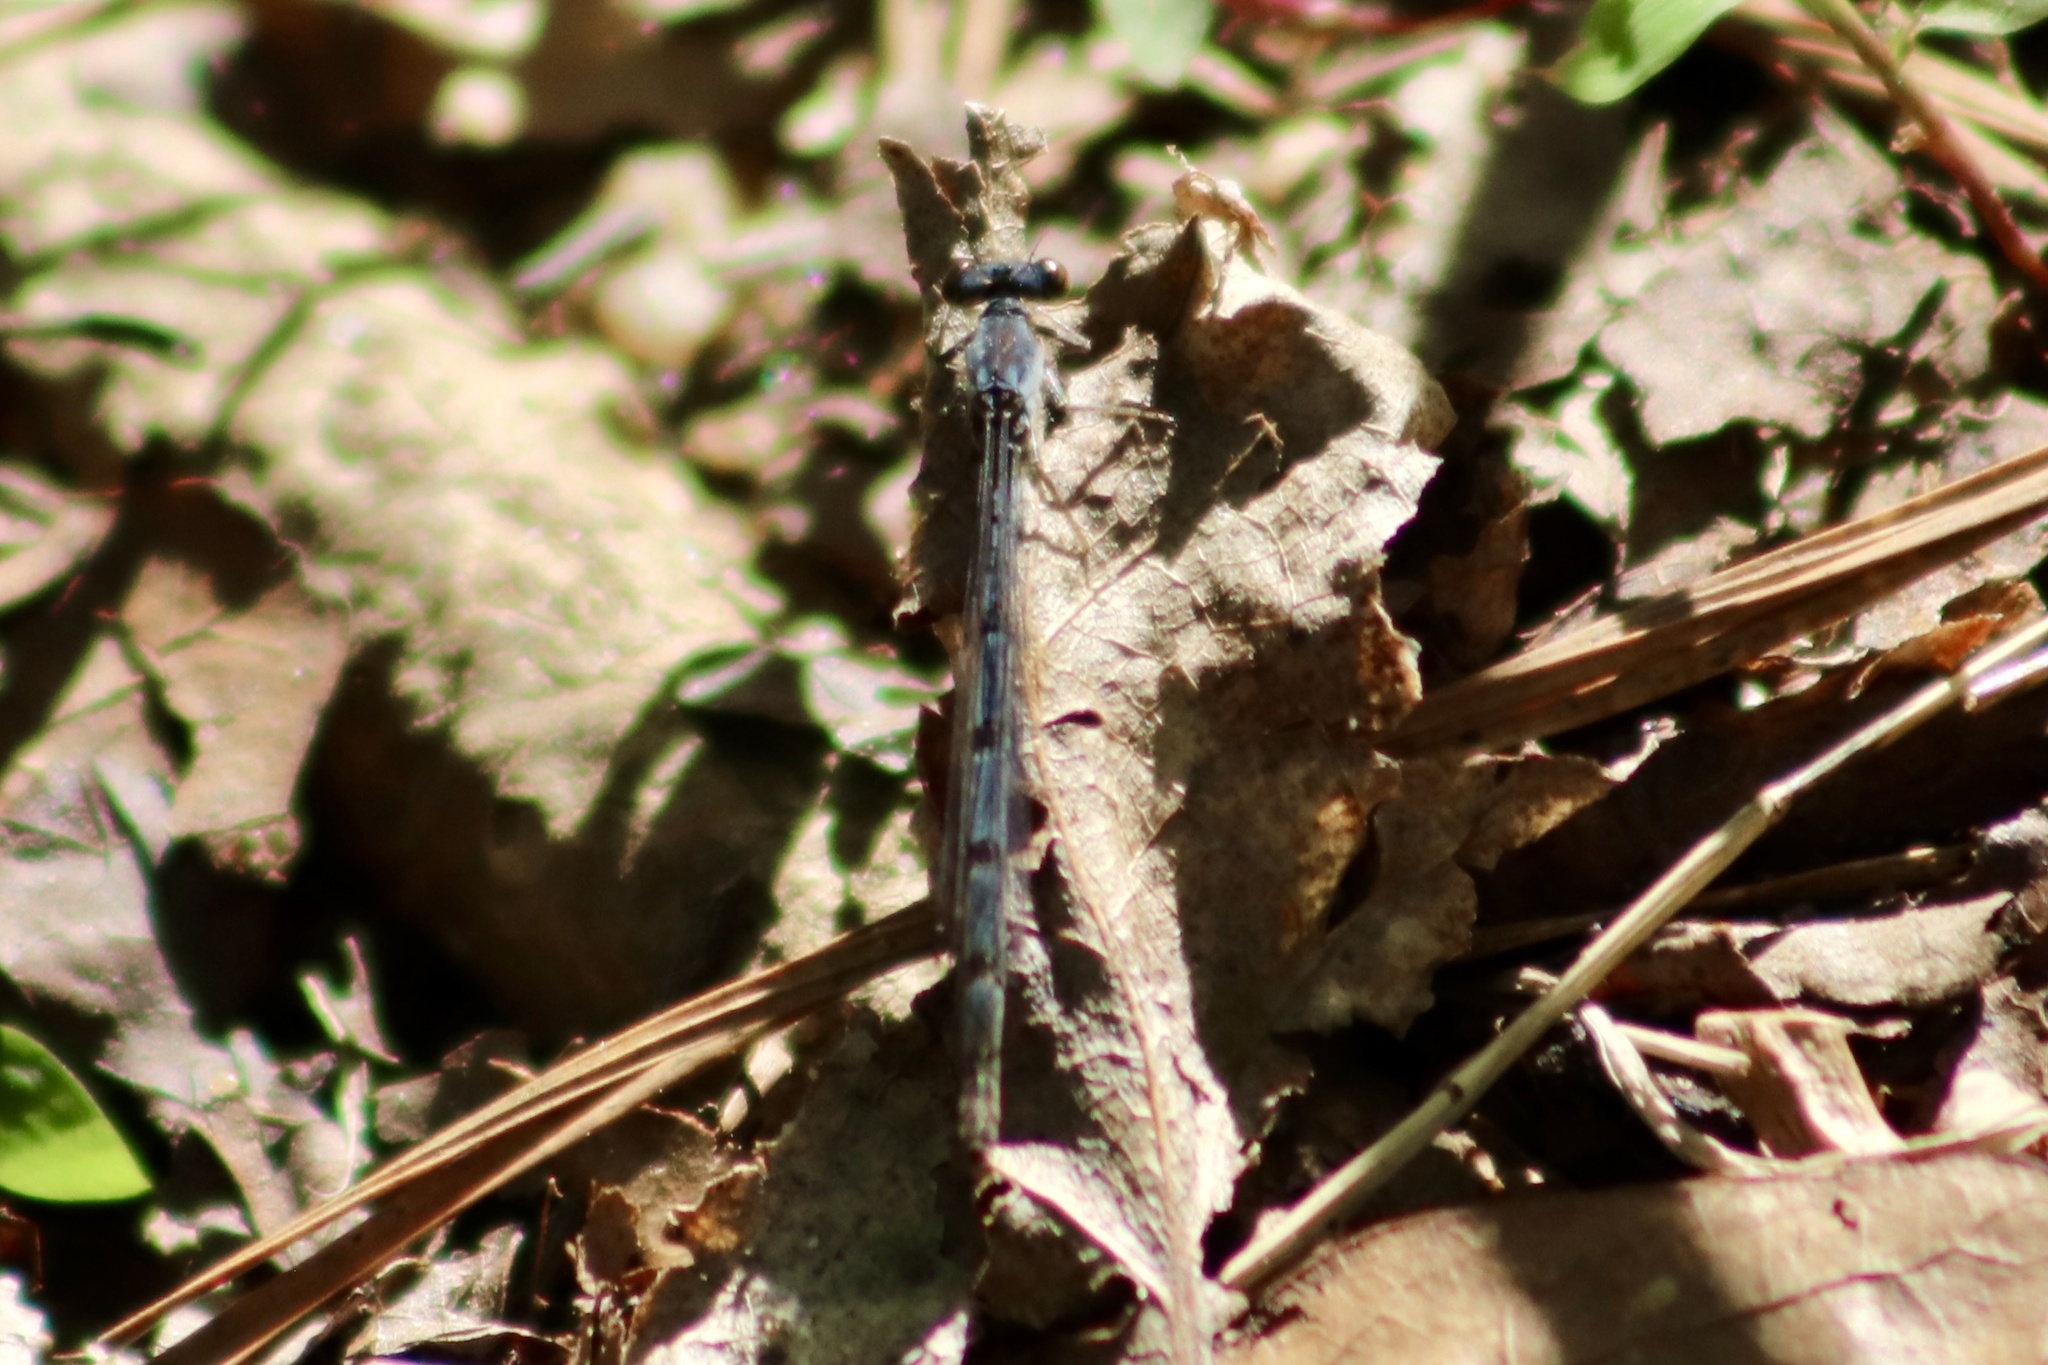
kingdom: Animalia
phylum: Arthropoda
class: Insecta
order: Odonata
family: Coenagrionidae
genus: Ischnura
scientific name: Ischnura posita
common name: Fragile forktail
